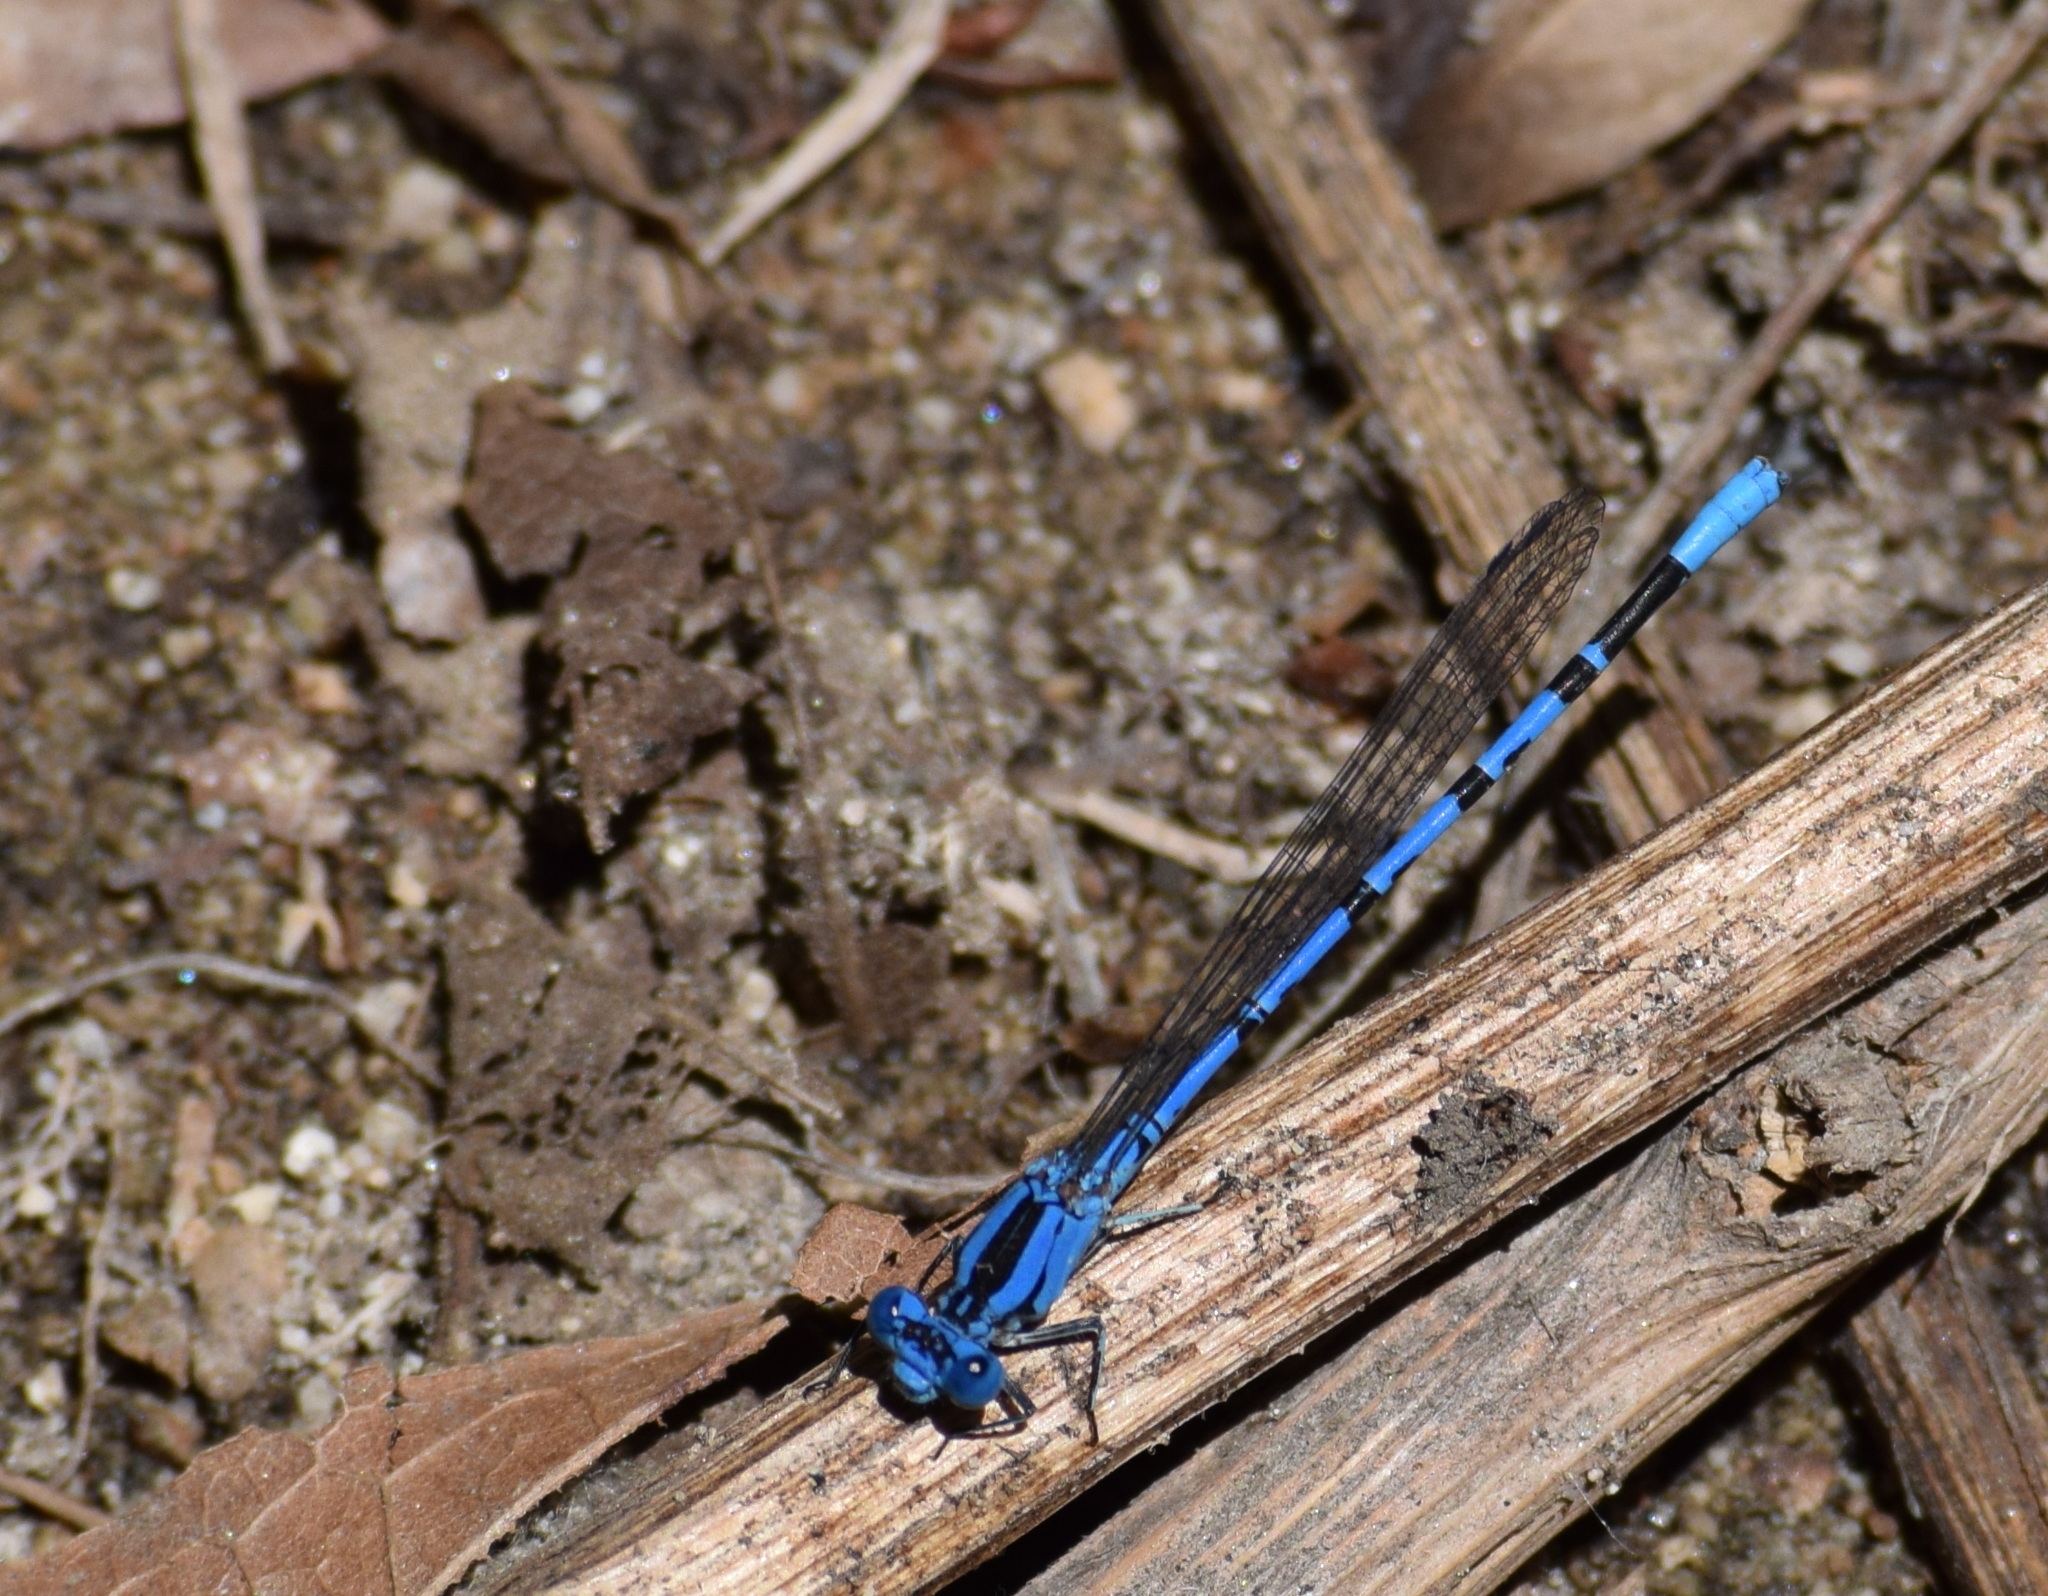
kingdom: Animalia
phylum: Arthropoda
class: Insecta
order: Odonata
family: Coenagrionidae
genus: Argia
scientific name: Argia vivida
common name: Vivid dancer
